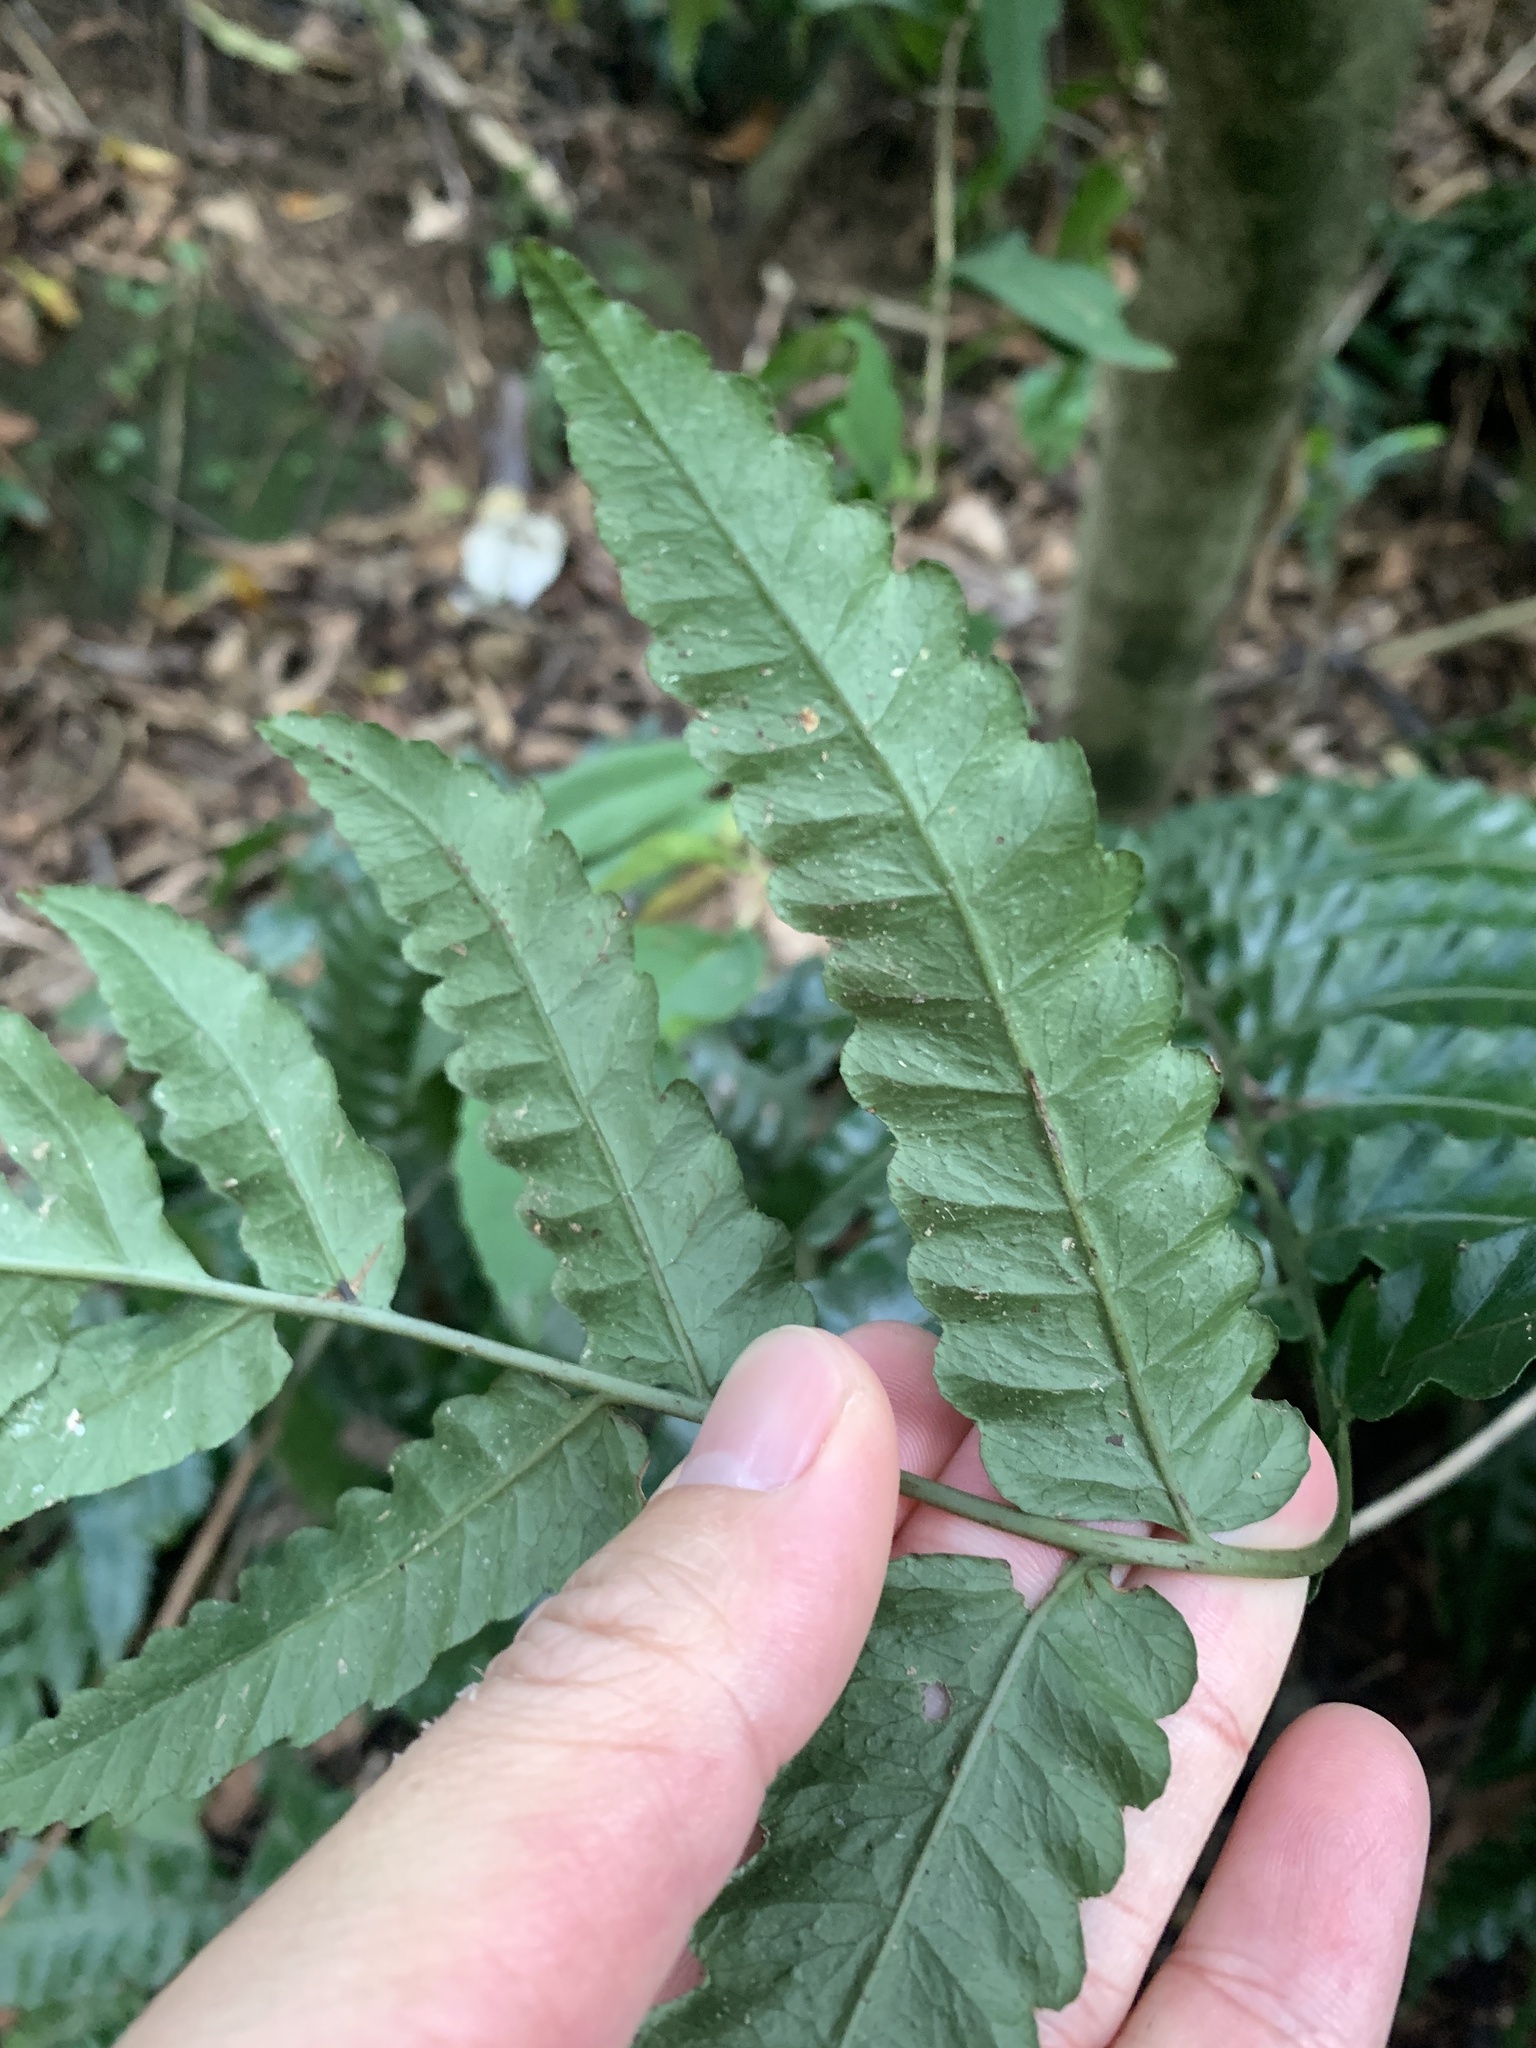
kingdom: Plantae
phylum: Tracheophyta
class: Polypodiopsida
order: Polypodiales
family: Dryopteridaceae
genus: Bolbitis
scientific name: Bolbitis subcordata
